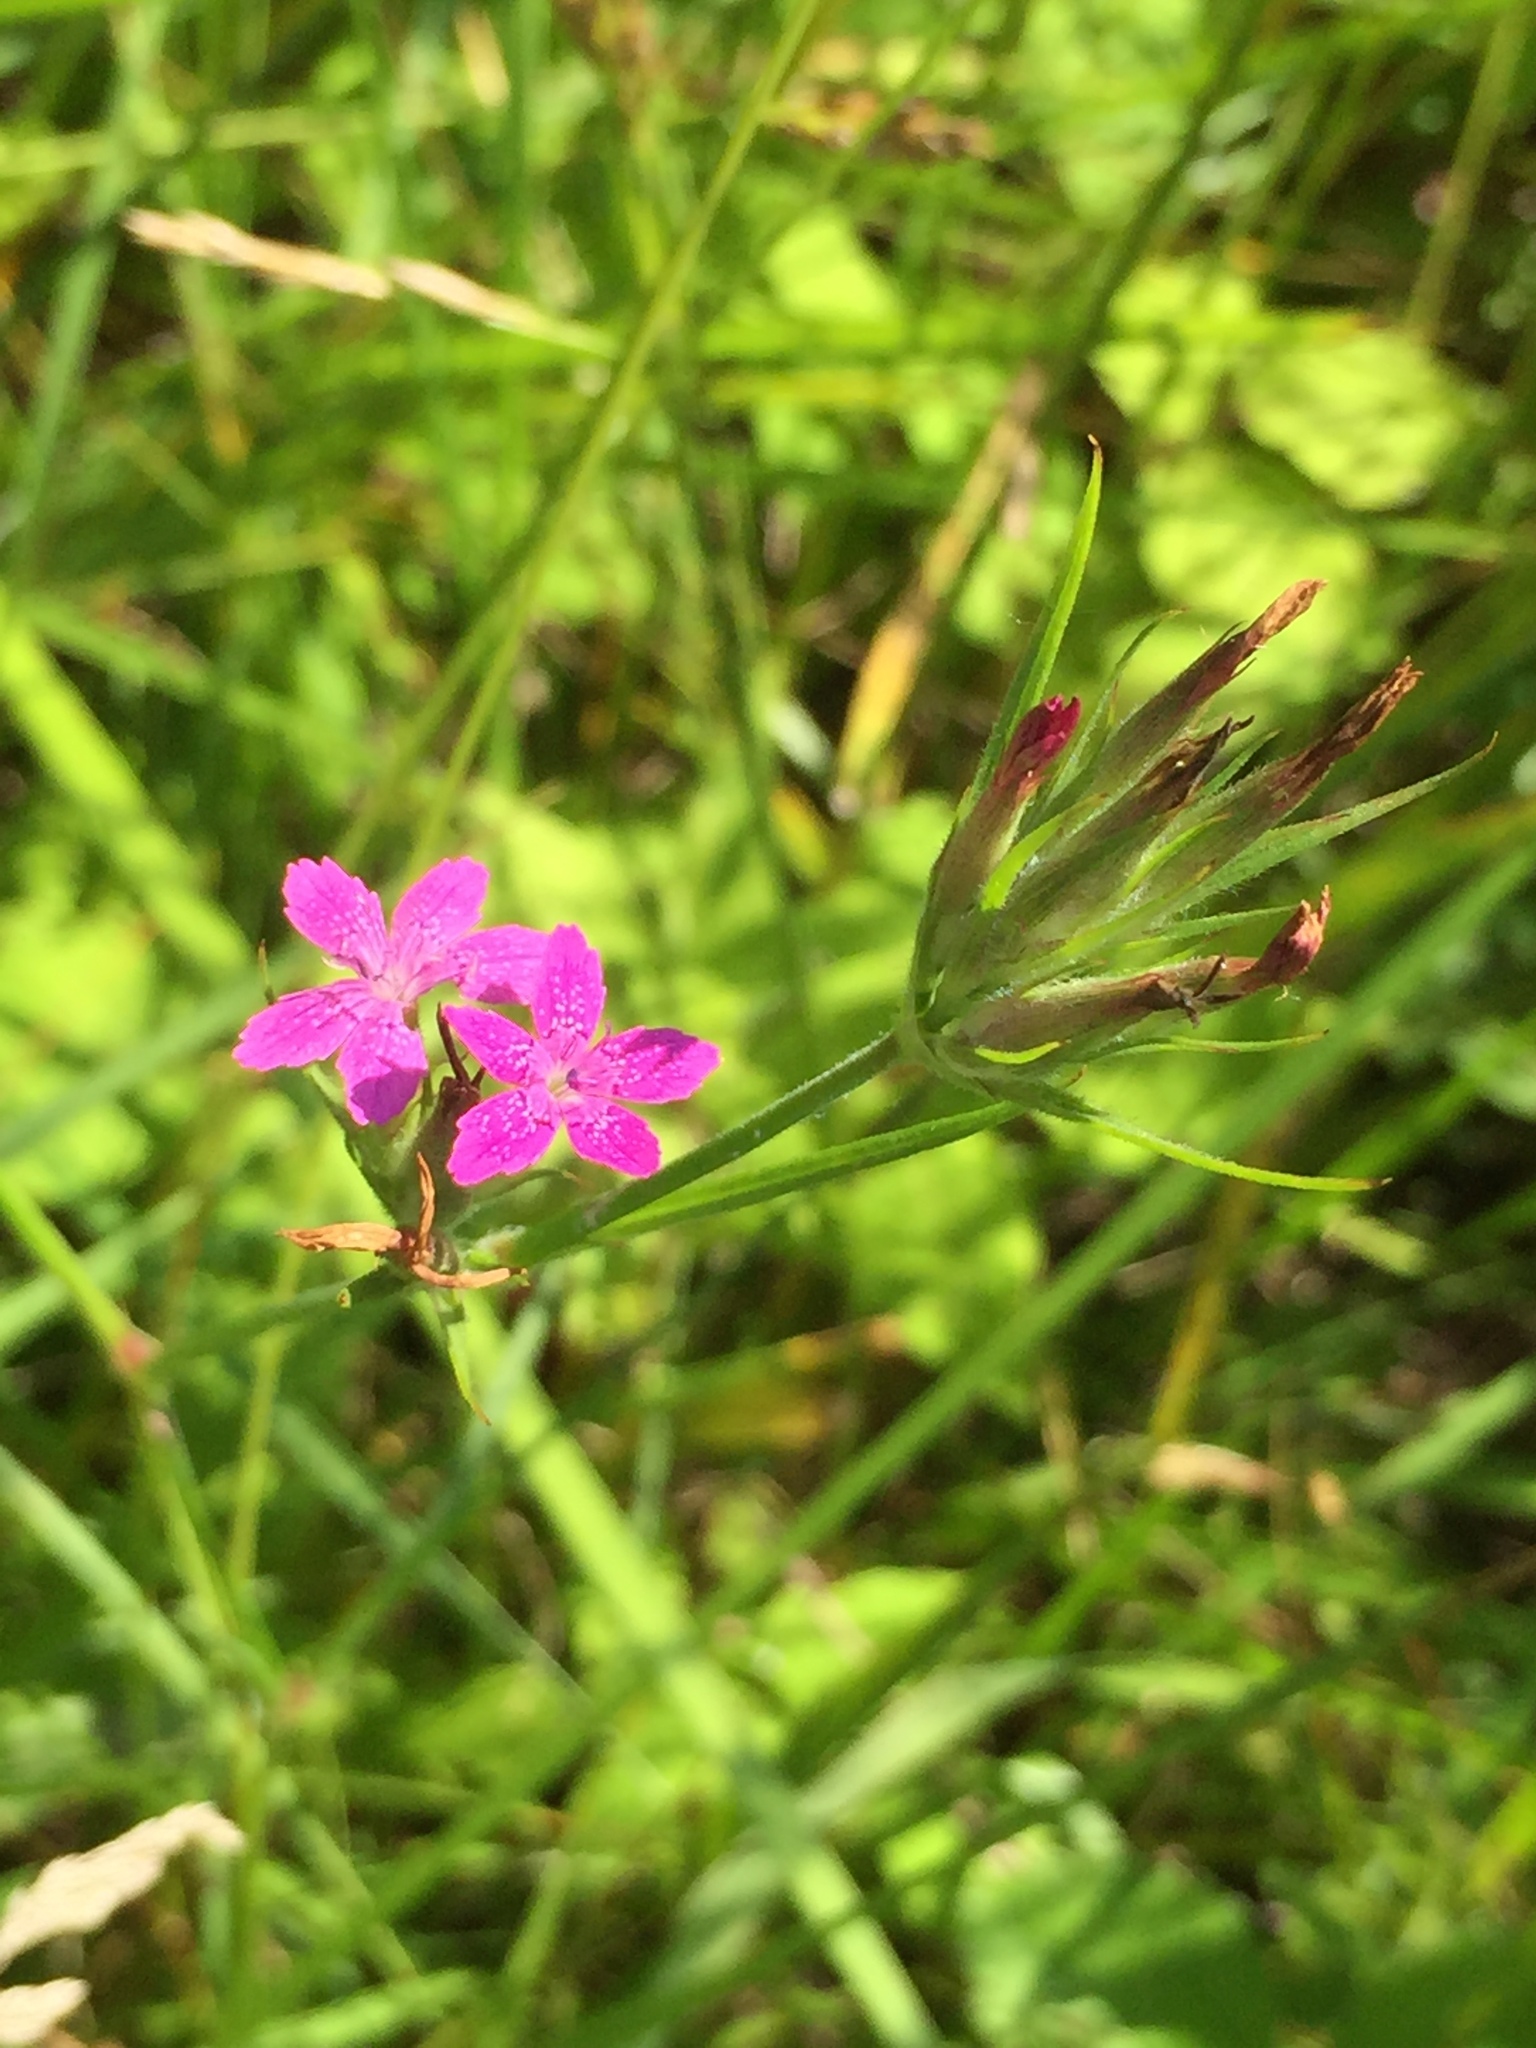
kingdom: Plantae
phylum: Tracheophyta
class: Magnoliopsida
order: Caryophyllales
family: Caryophyllaceae
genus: Dianthus
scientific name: Dianthus armeria
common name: Deptford pink
